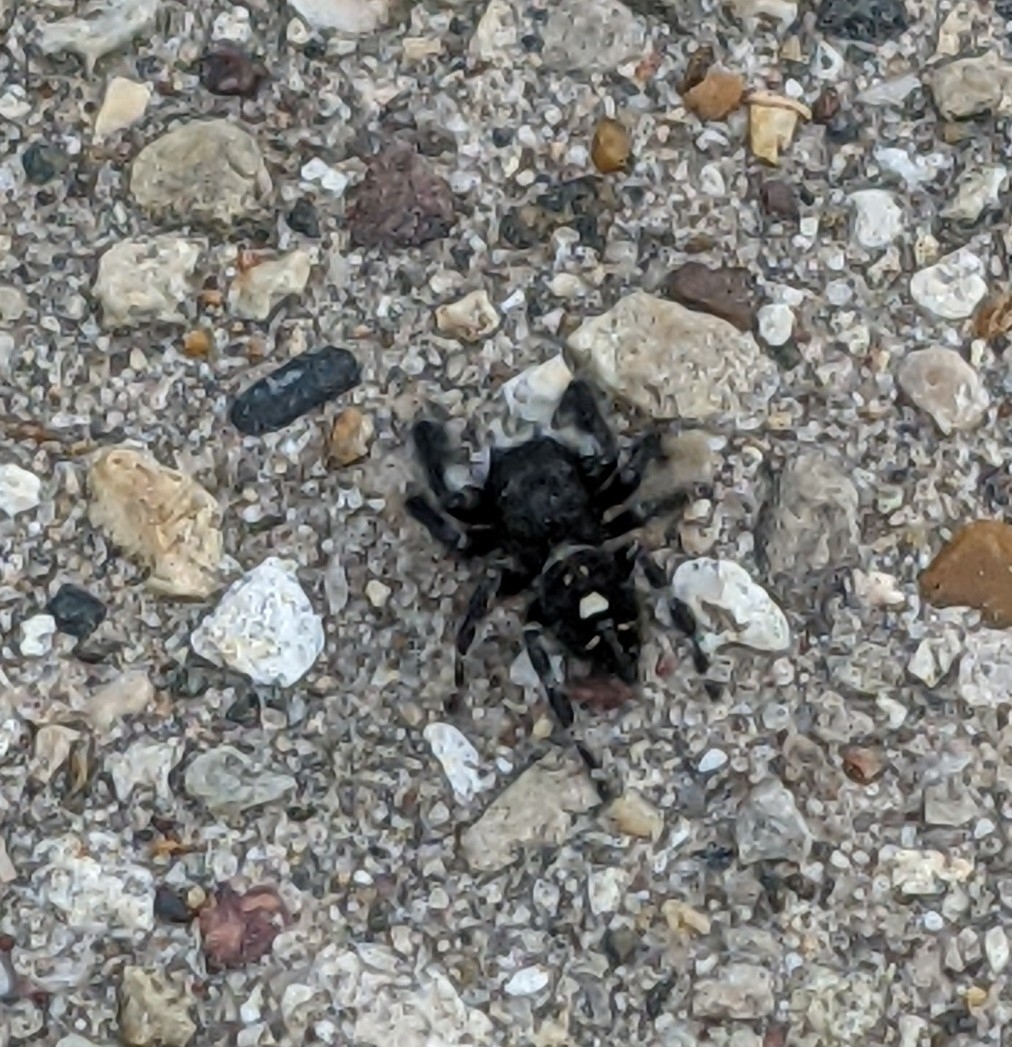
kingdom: Animalia
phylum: Arthropoda
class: Arachnida
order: Araneae
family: Salticidae
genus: Phidippus
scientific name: Phidippus audax
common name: Bold jumper
